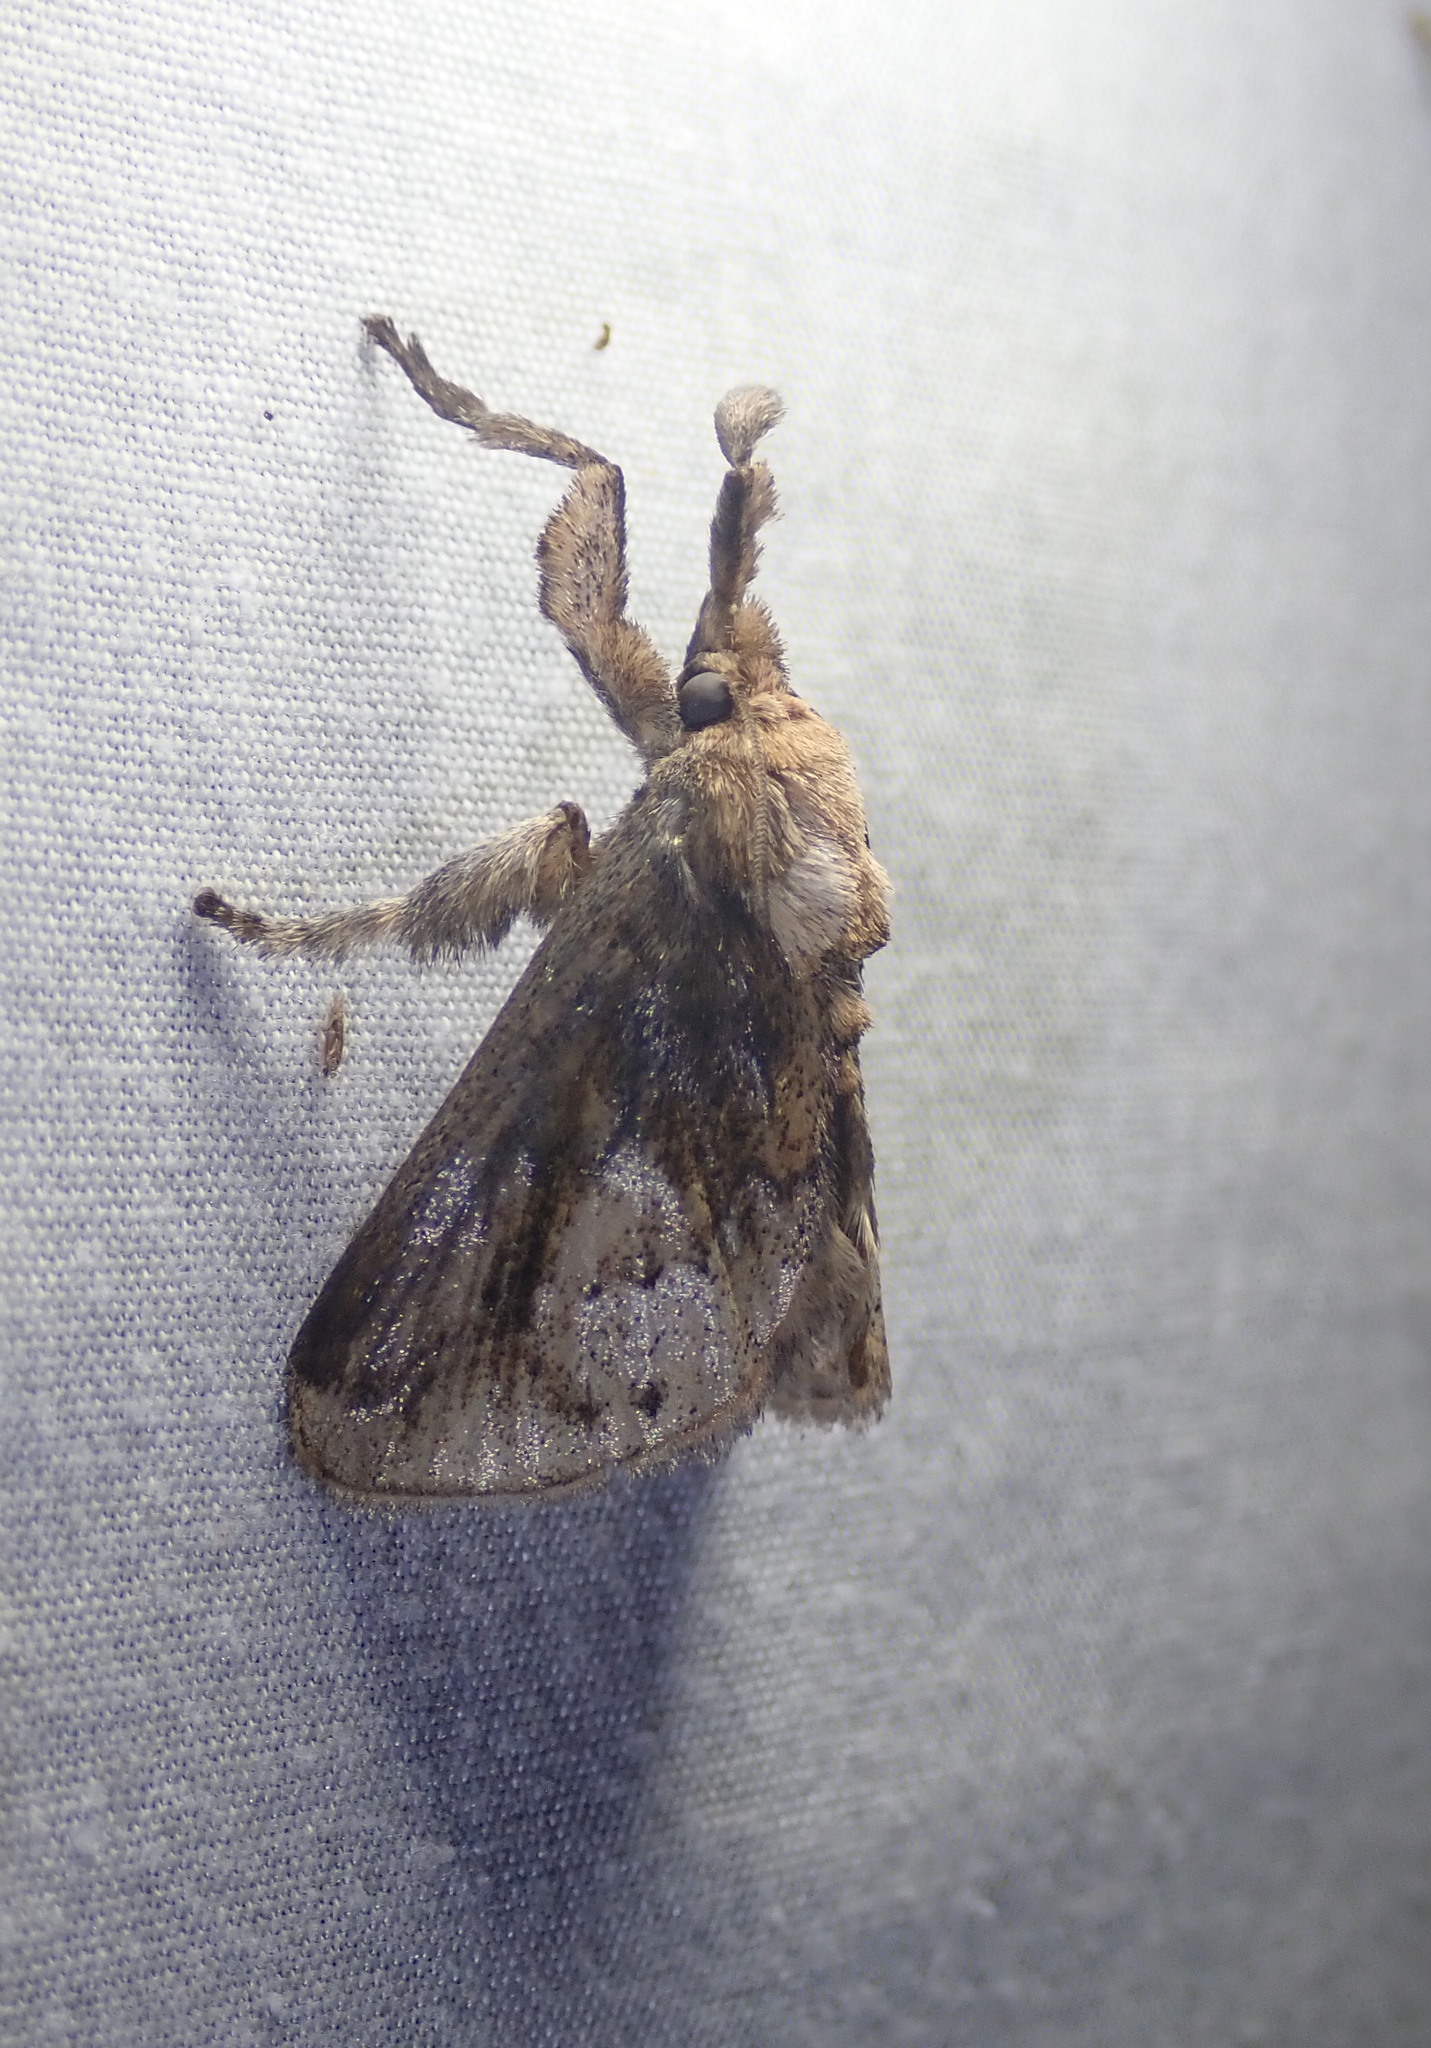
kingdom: Animalia
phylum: Arthropoda
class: Insecta
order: Lepidoptera
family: Limacodidae
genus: Perola
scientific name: Perola nitidissima
